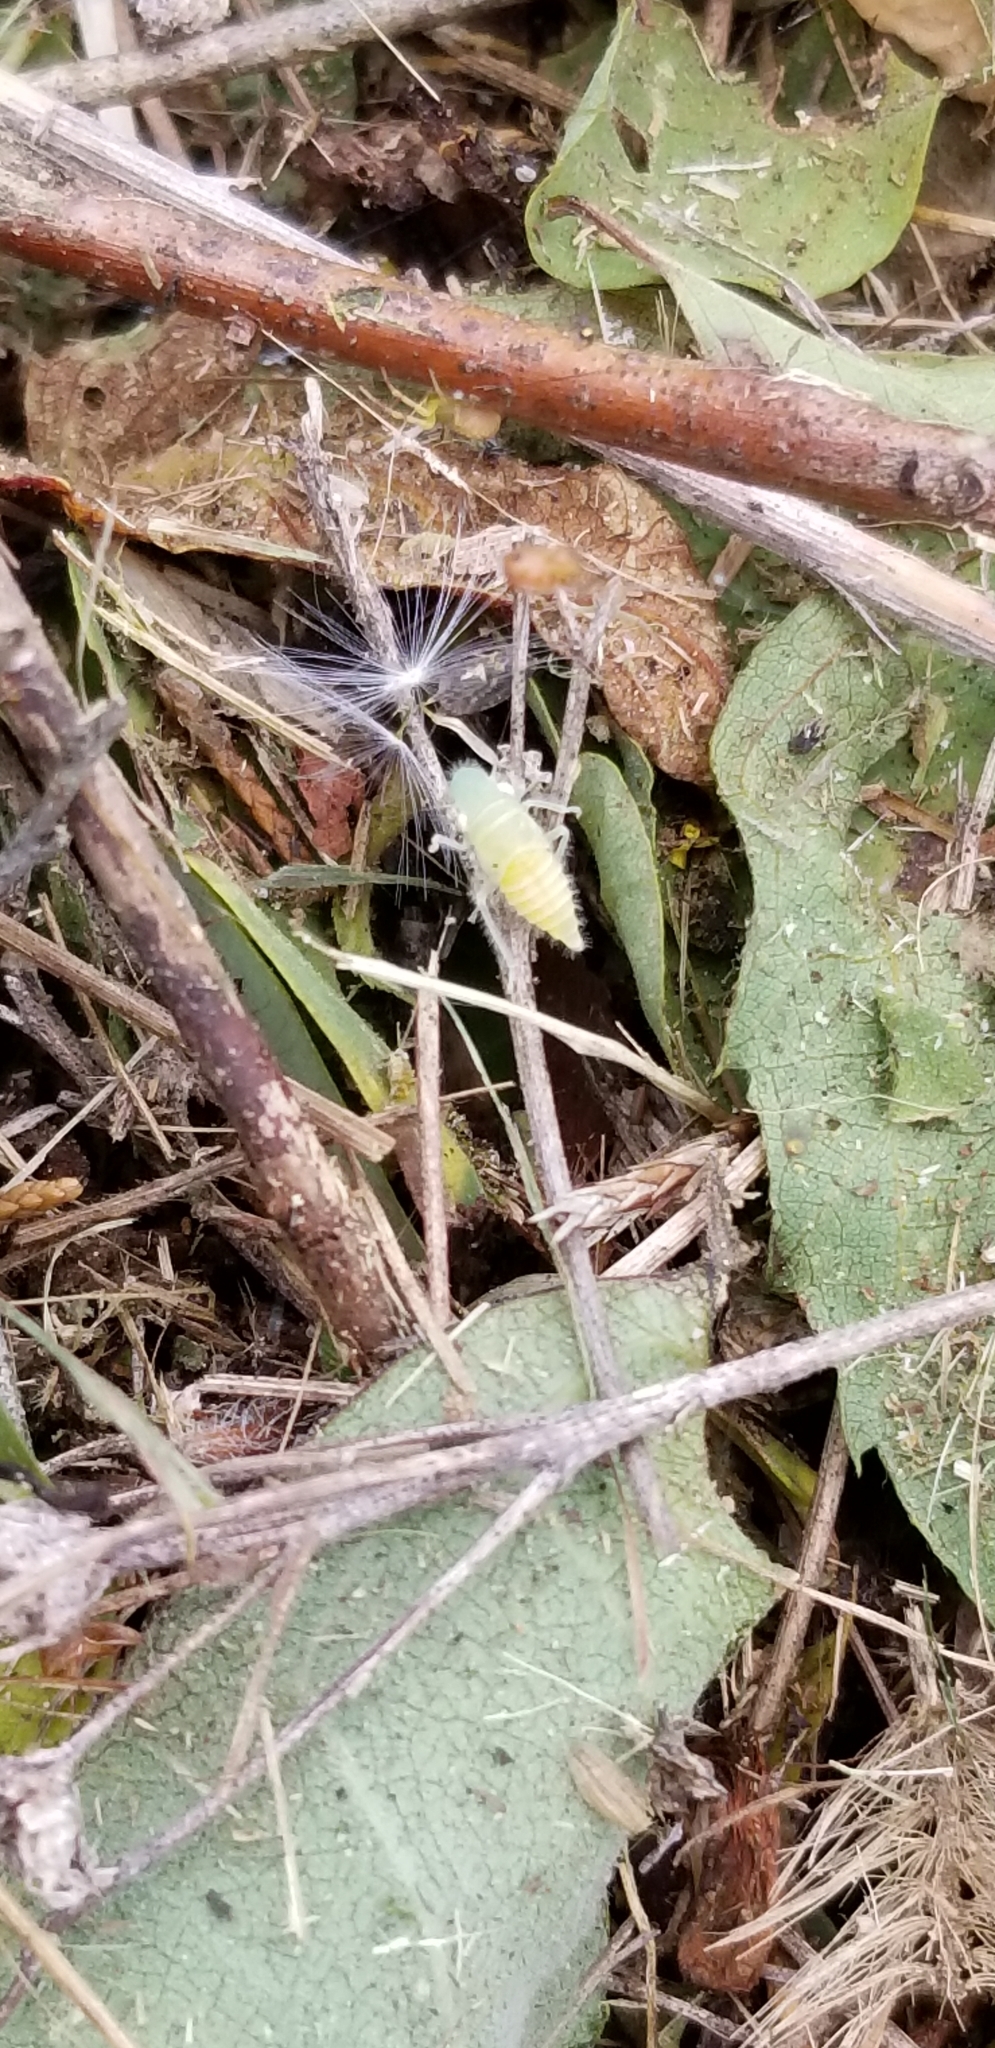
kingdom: Animalia
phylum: Arthropoda
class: Insecta
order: Hemiptera
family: Cicadellidae
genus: Paraulacizes
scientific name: Paraulacizes irrorata
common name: Speckled sharpshooter
